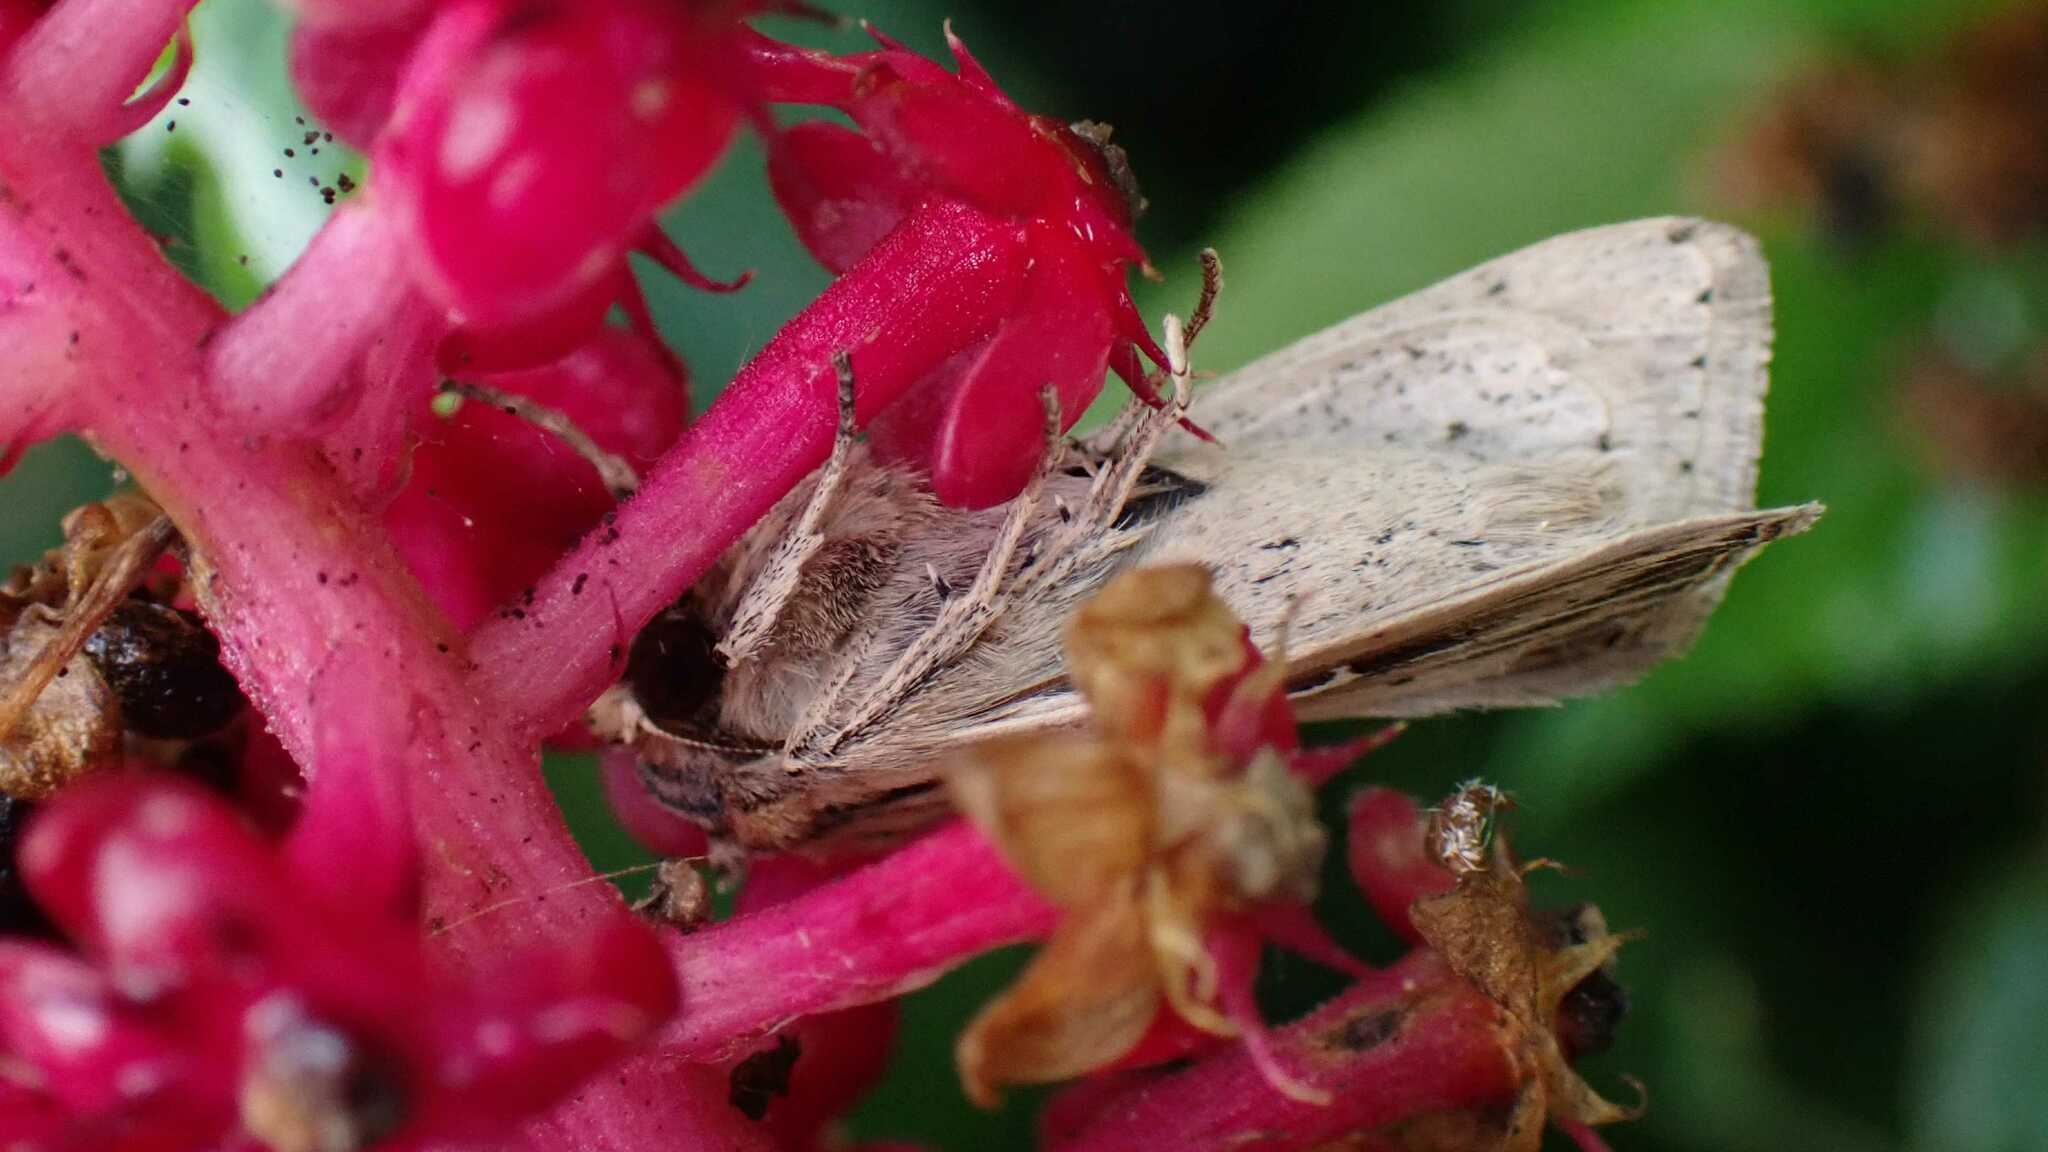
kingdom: Animalia
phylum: Arthropoda
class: Insecta
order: Lepidoptera
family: Noctuidae
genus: Mythimna
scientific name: Mythimna l-album
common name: L-album wainscot
